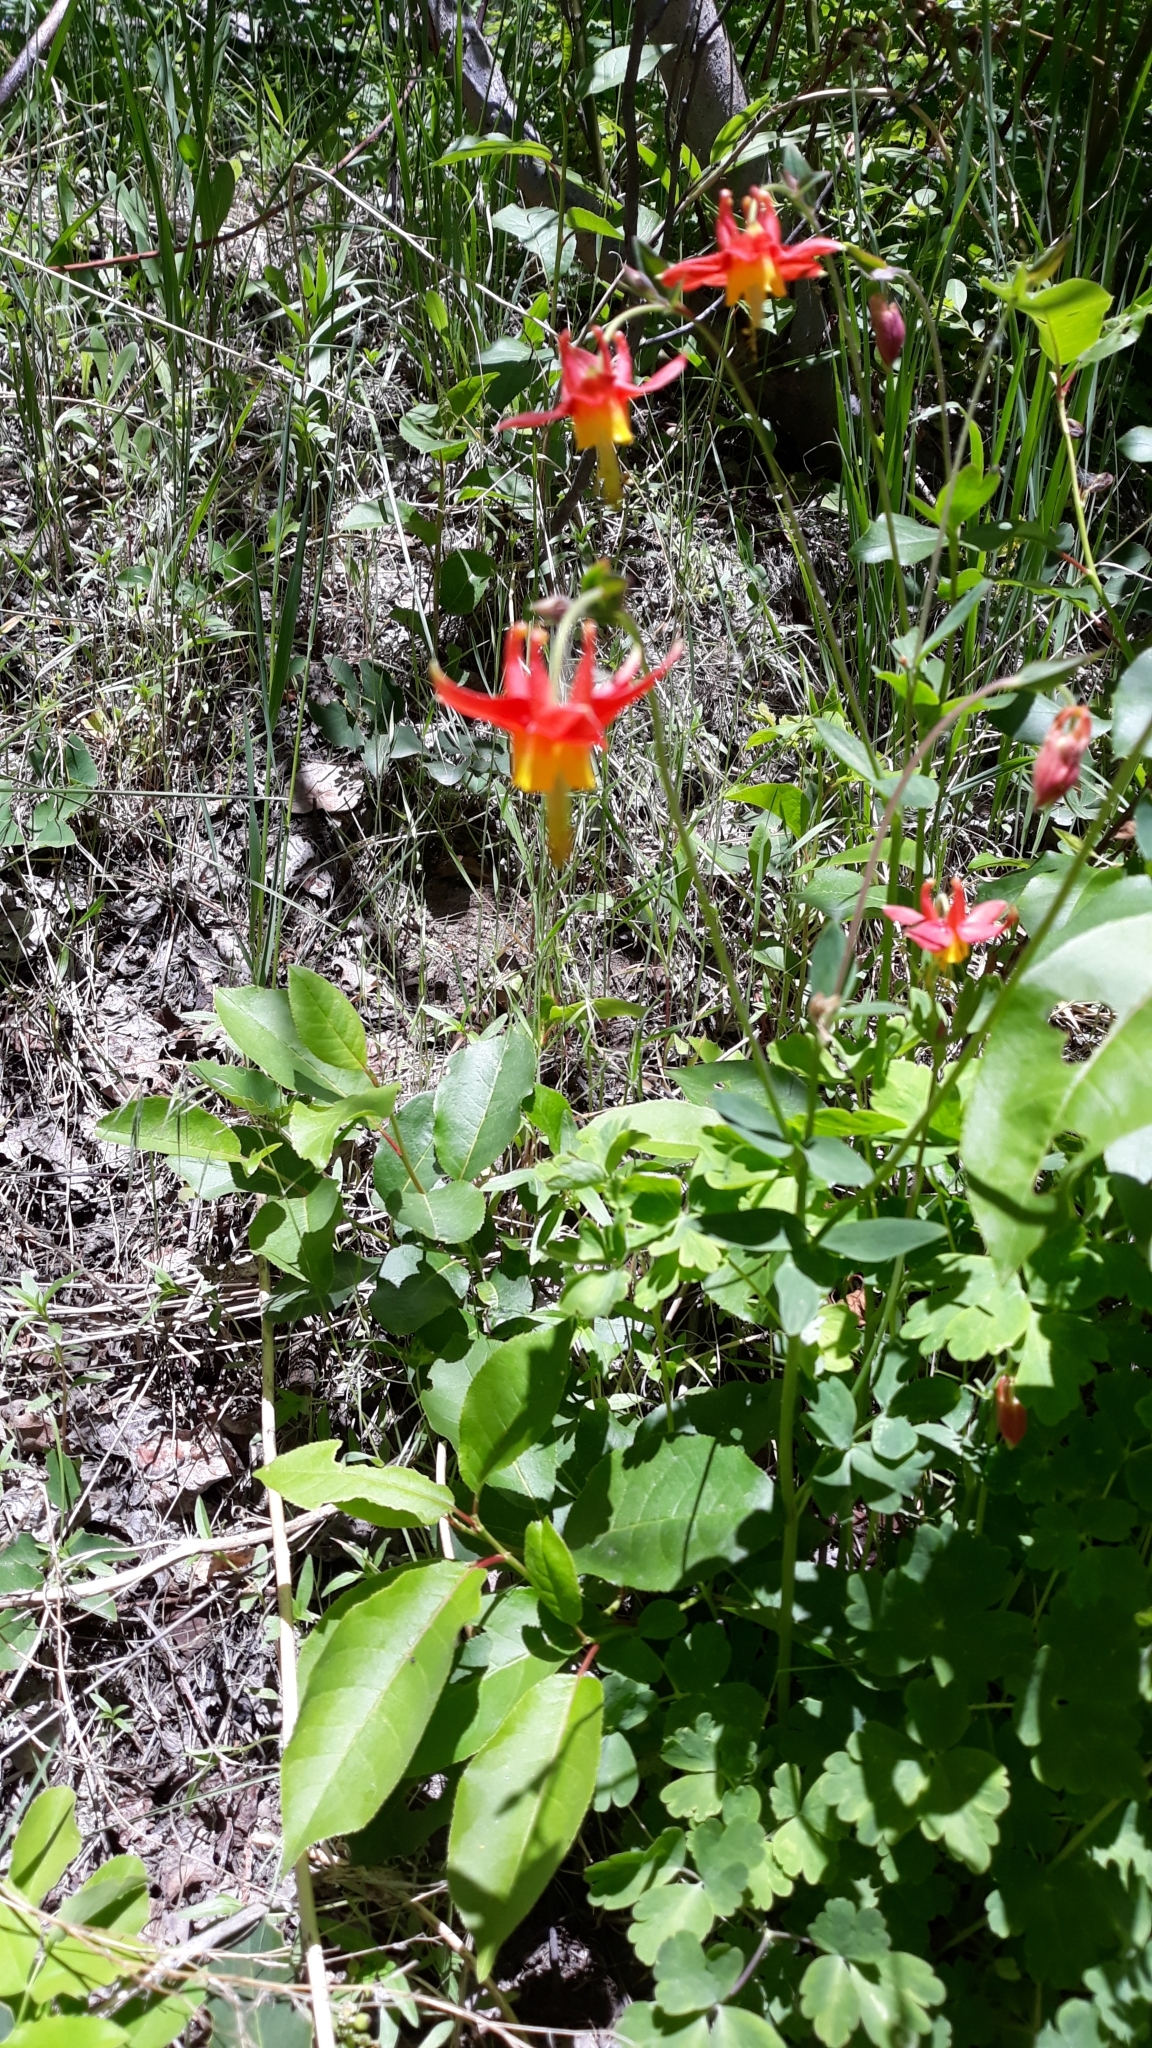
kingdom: Plantae
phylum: Tracheophyta
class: Magnoliopsida
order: Ranunculales
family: Ranunculaceae
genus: Aquilegia
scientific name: Aquilegia formosa
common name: Sitka columbine
